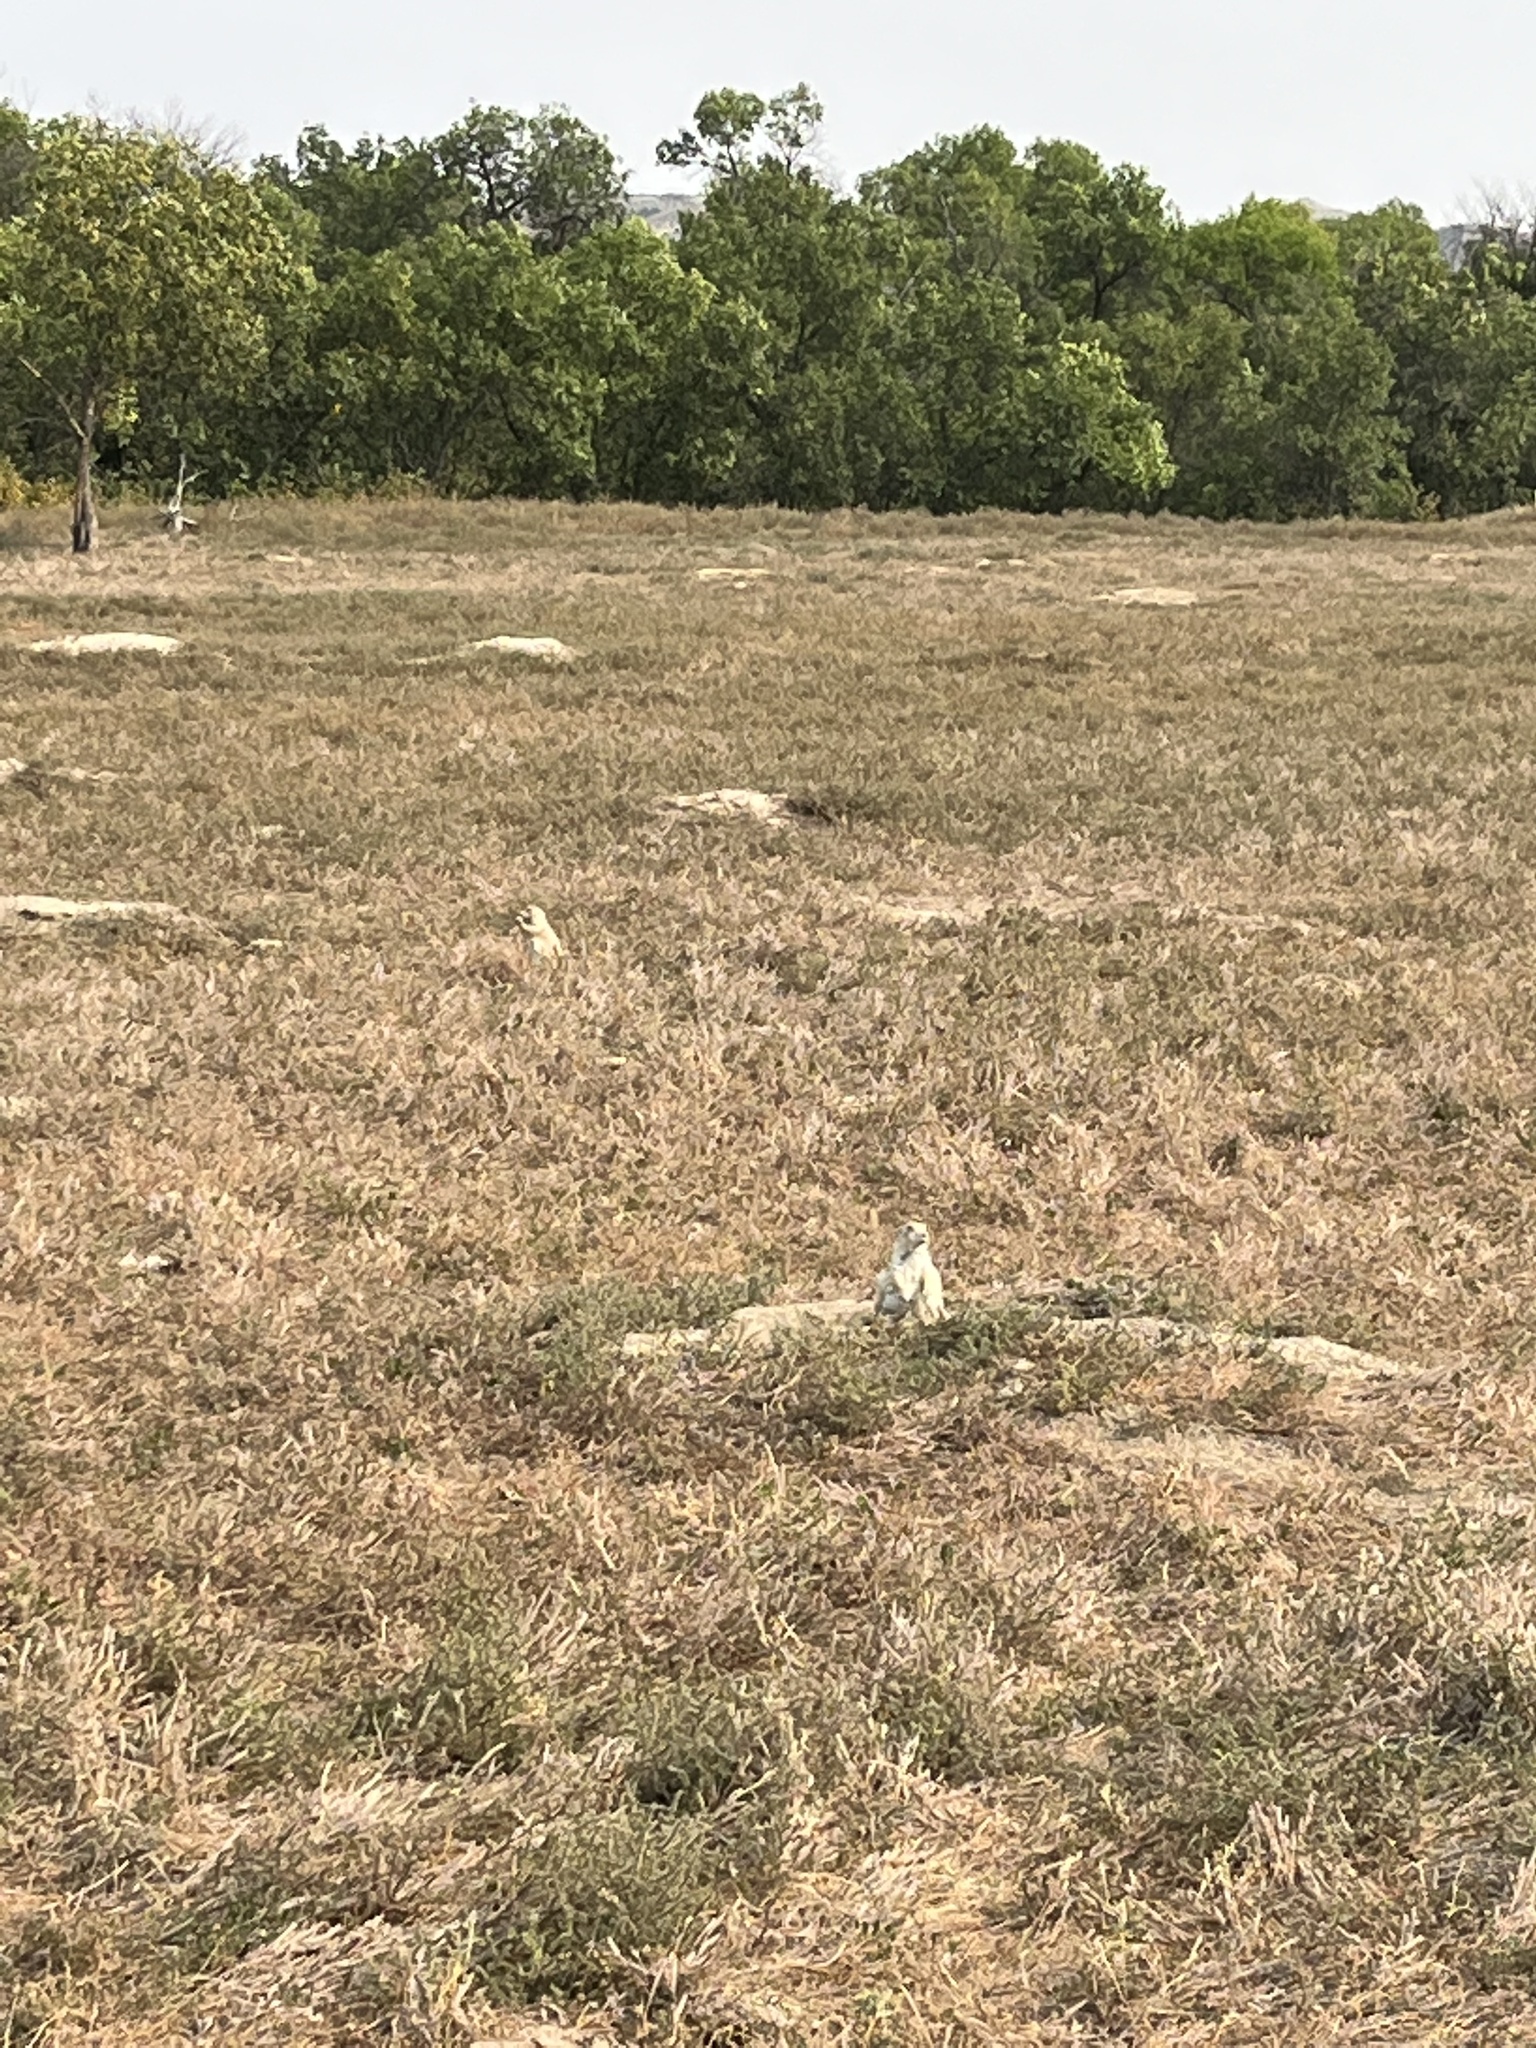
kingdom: Animalia
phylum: Chordata
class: Mammalia
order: Rodentia
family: Sciuridae
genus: Cynomys
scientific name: Cynomys ludovicianus
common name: Black-tailed prairie dog
